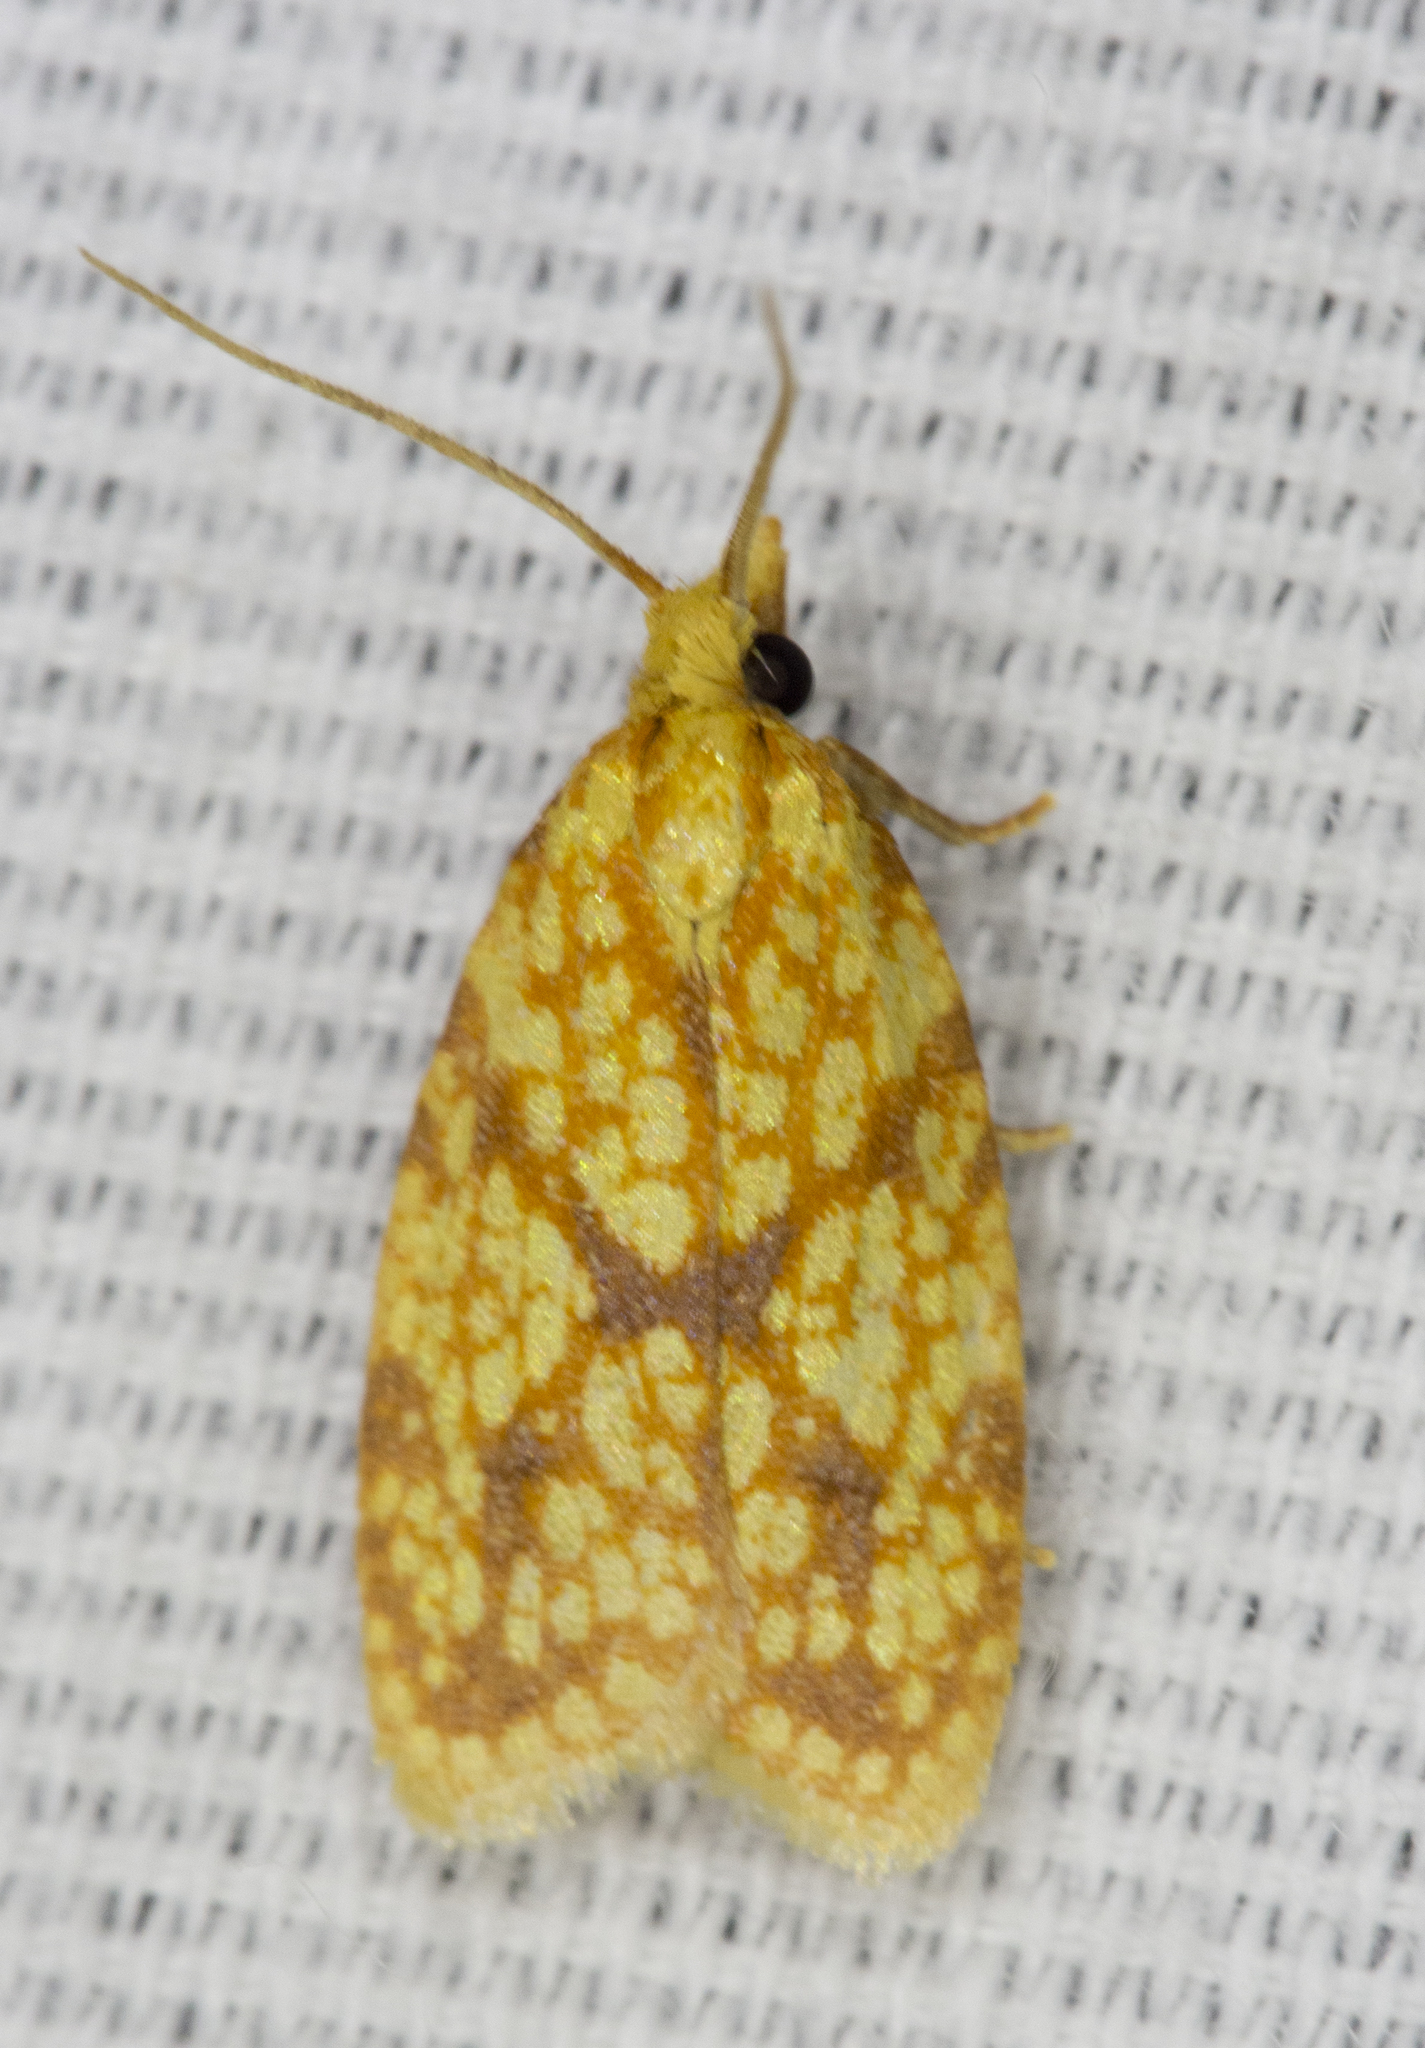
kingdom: Animalia
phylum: Arthropoda
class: Insecta
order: Lepidoptera
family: Tortricidae
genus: Sparganothis
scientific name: Sparganothis sulfureana
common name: Sparganothis fruitworm moth
